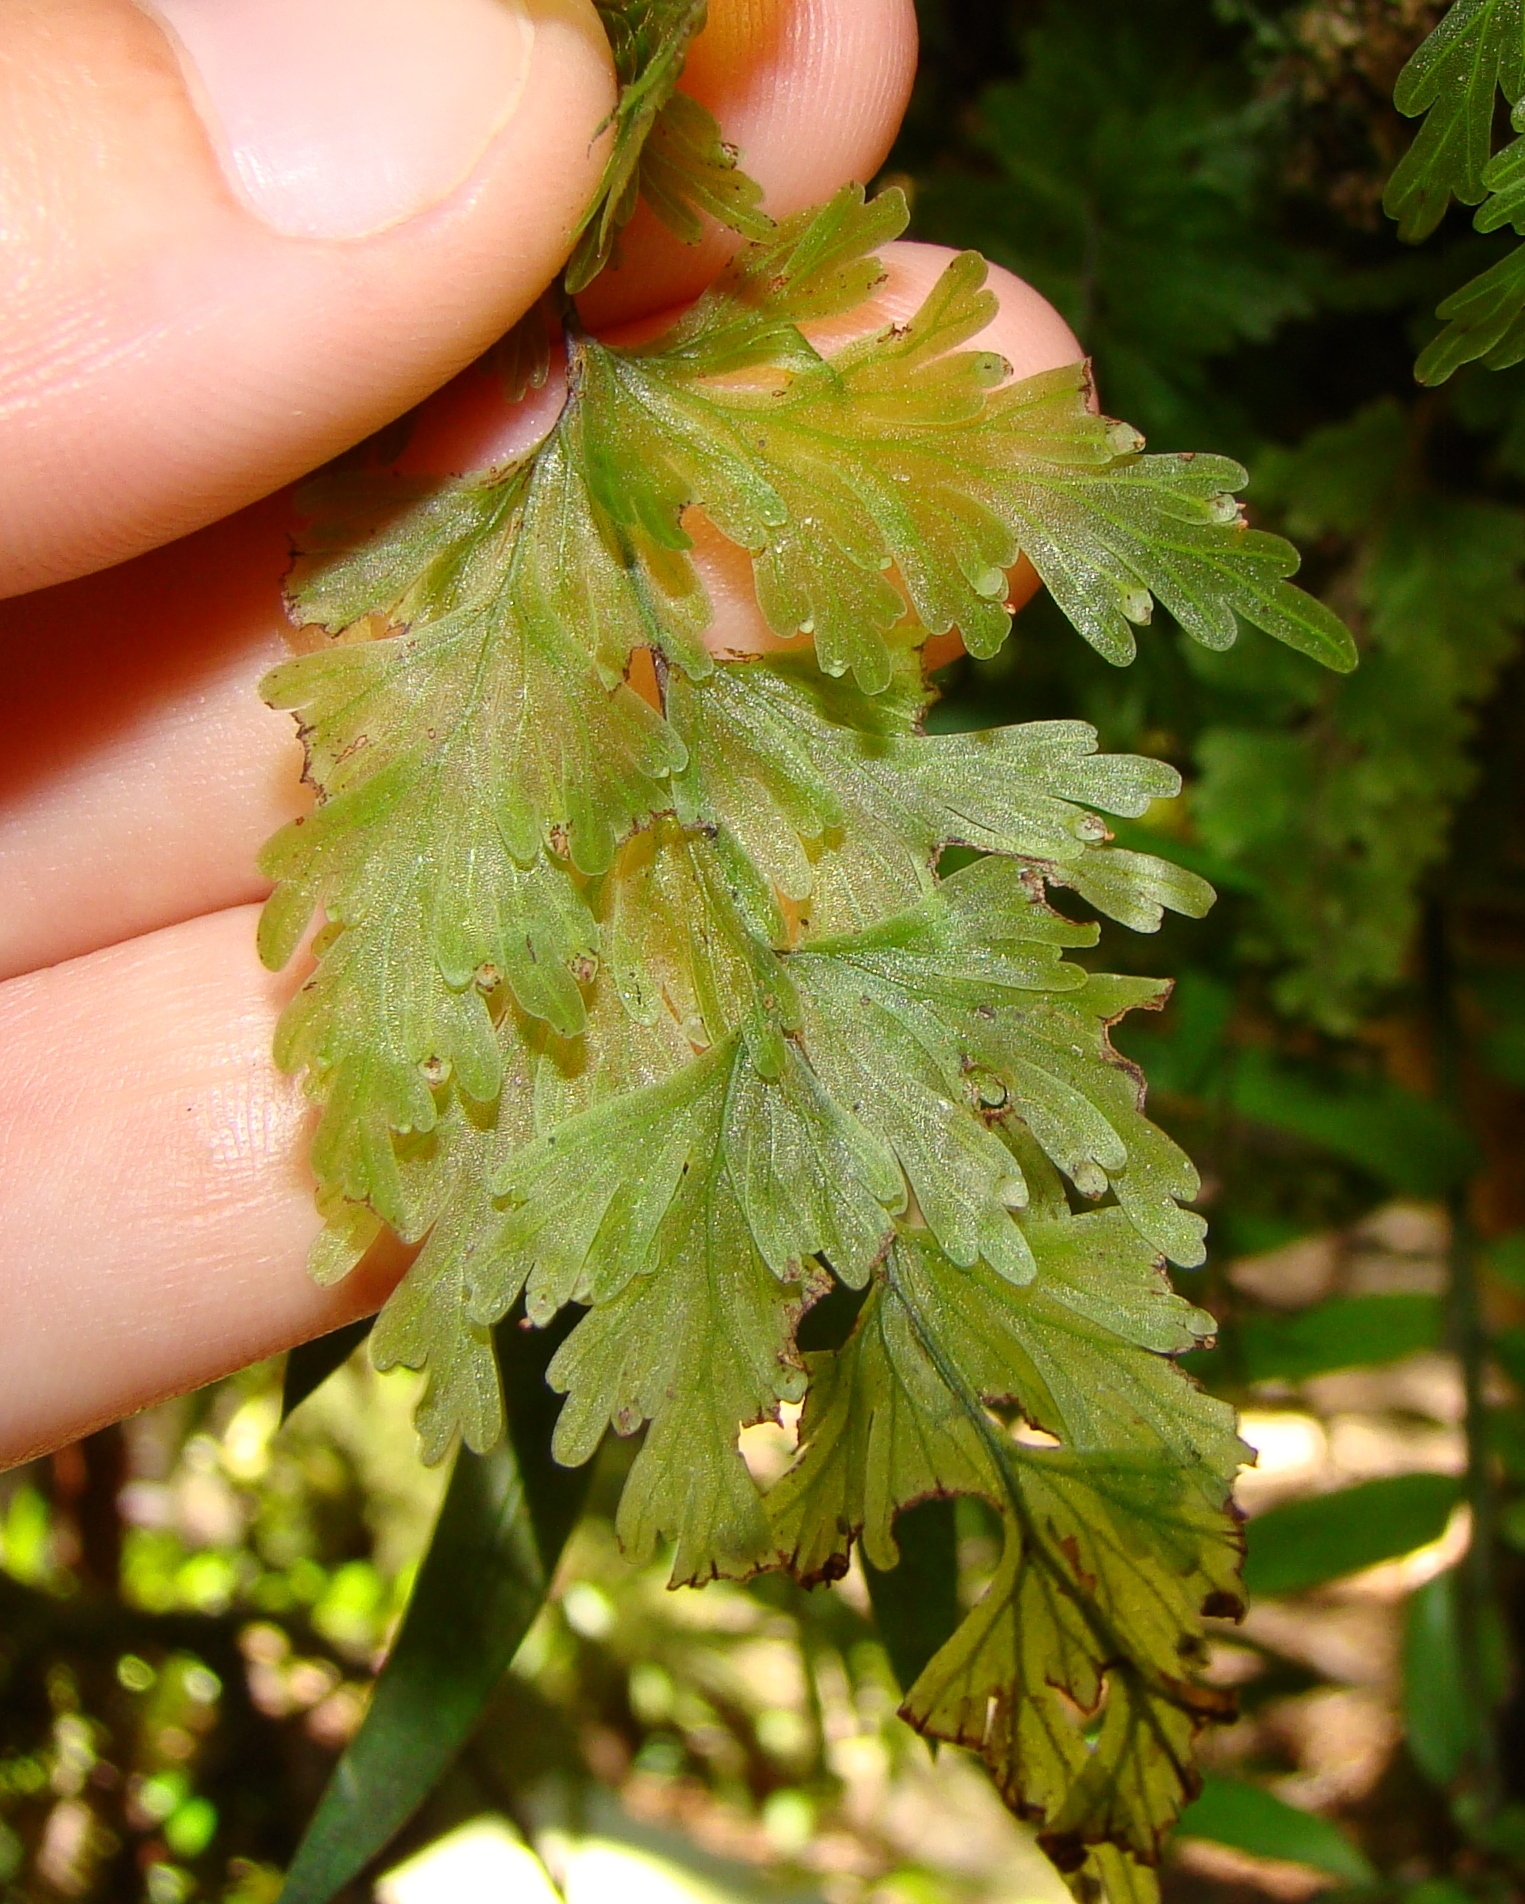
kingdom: Plantae
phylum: Tracheophyta
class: Polypodiopsida
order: Hymenophyllales
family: Hymenophyllaceae
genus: Hymenophyllum
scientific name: Hymenophyllum flabellatum
